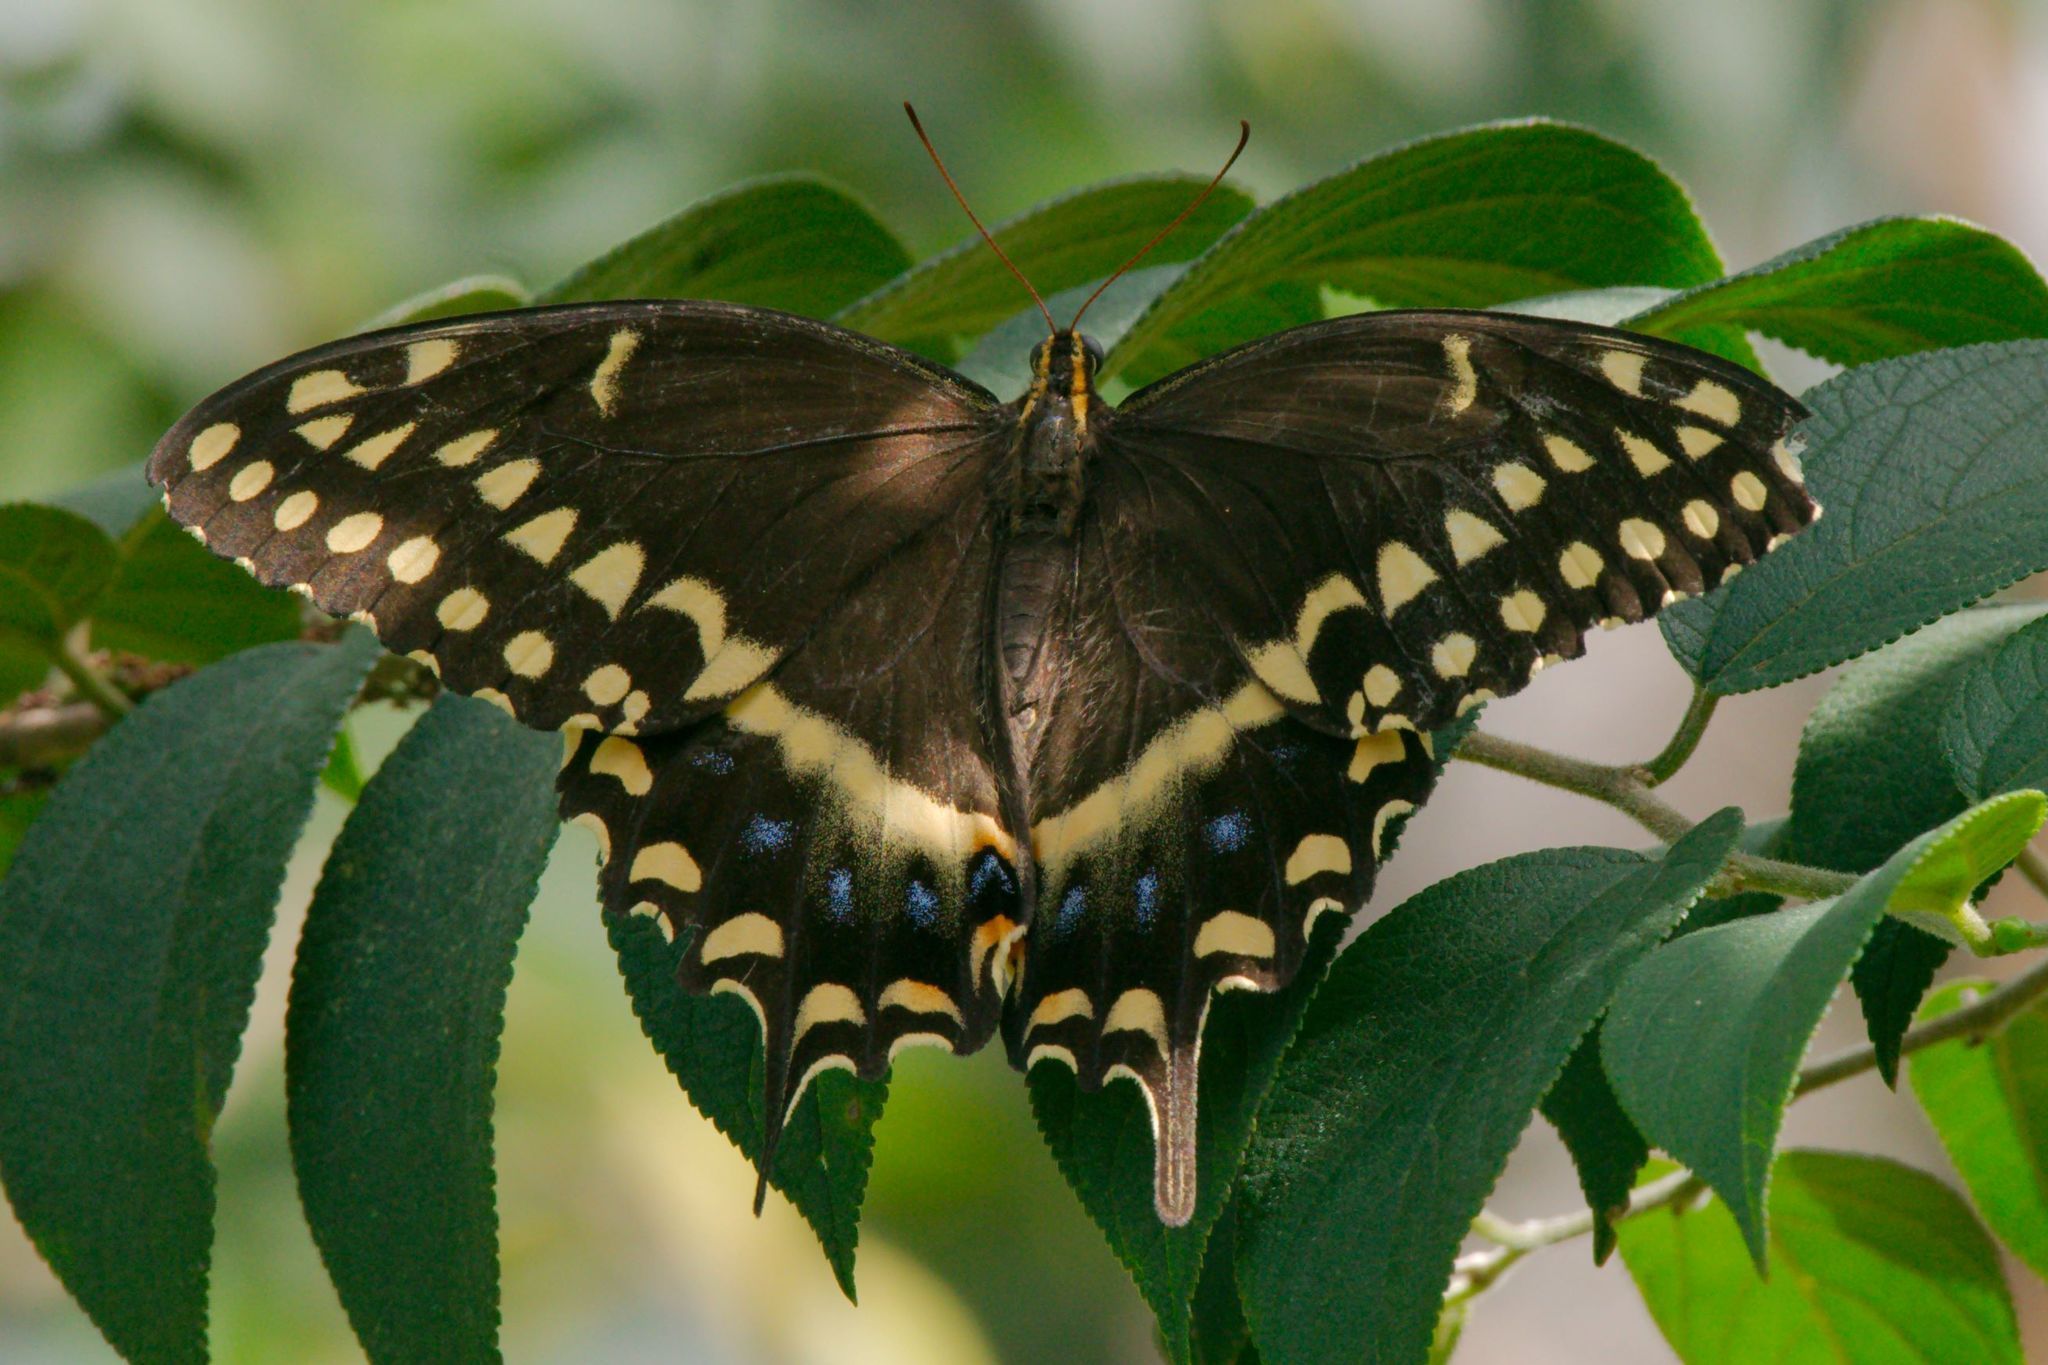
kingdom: Animalia
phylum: Arthropoda
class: Insecta
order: Lepidoptera
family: Papilionidae
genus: Papilio
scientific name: Papilio palamedes
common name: Palamedes swallowtail
